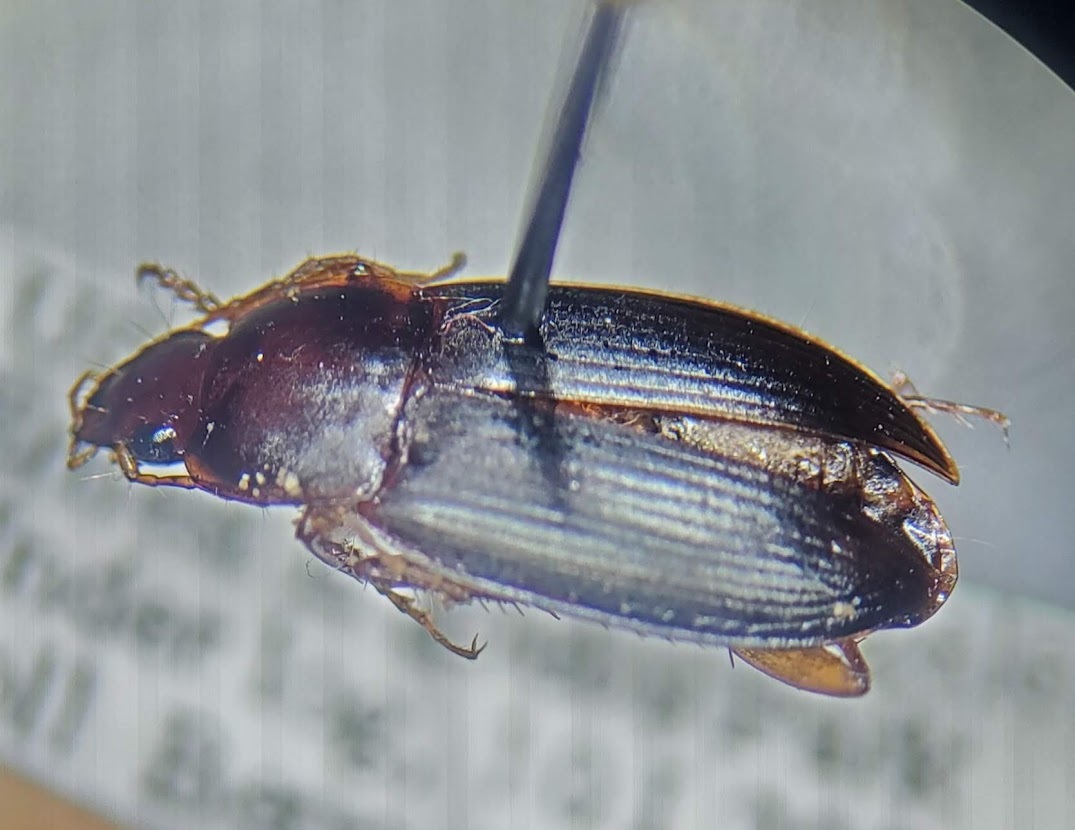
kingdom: Animalia
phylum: Arthropoda
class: Insecta
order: Coleoptera
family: Carabidae
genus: Calathus
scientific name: Calathus ruficollis
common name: Red-collared harp ground beetle
